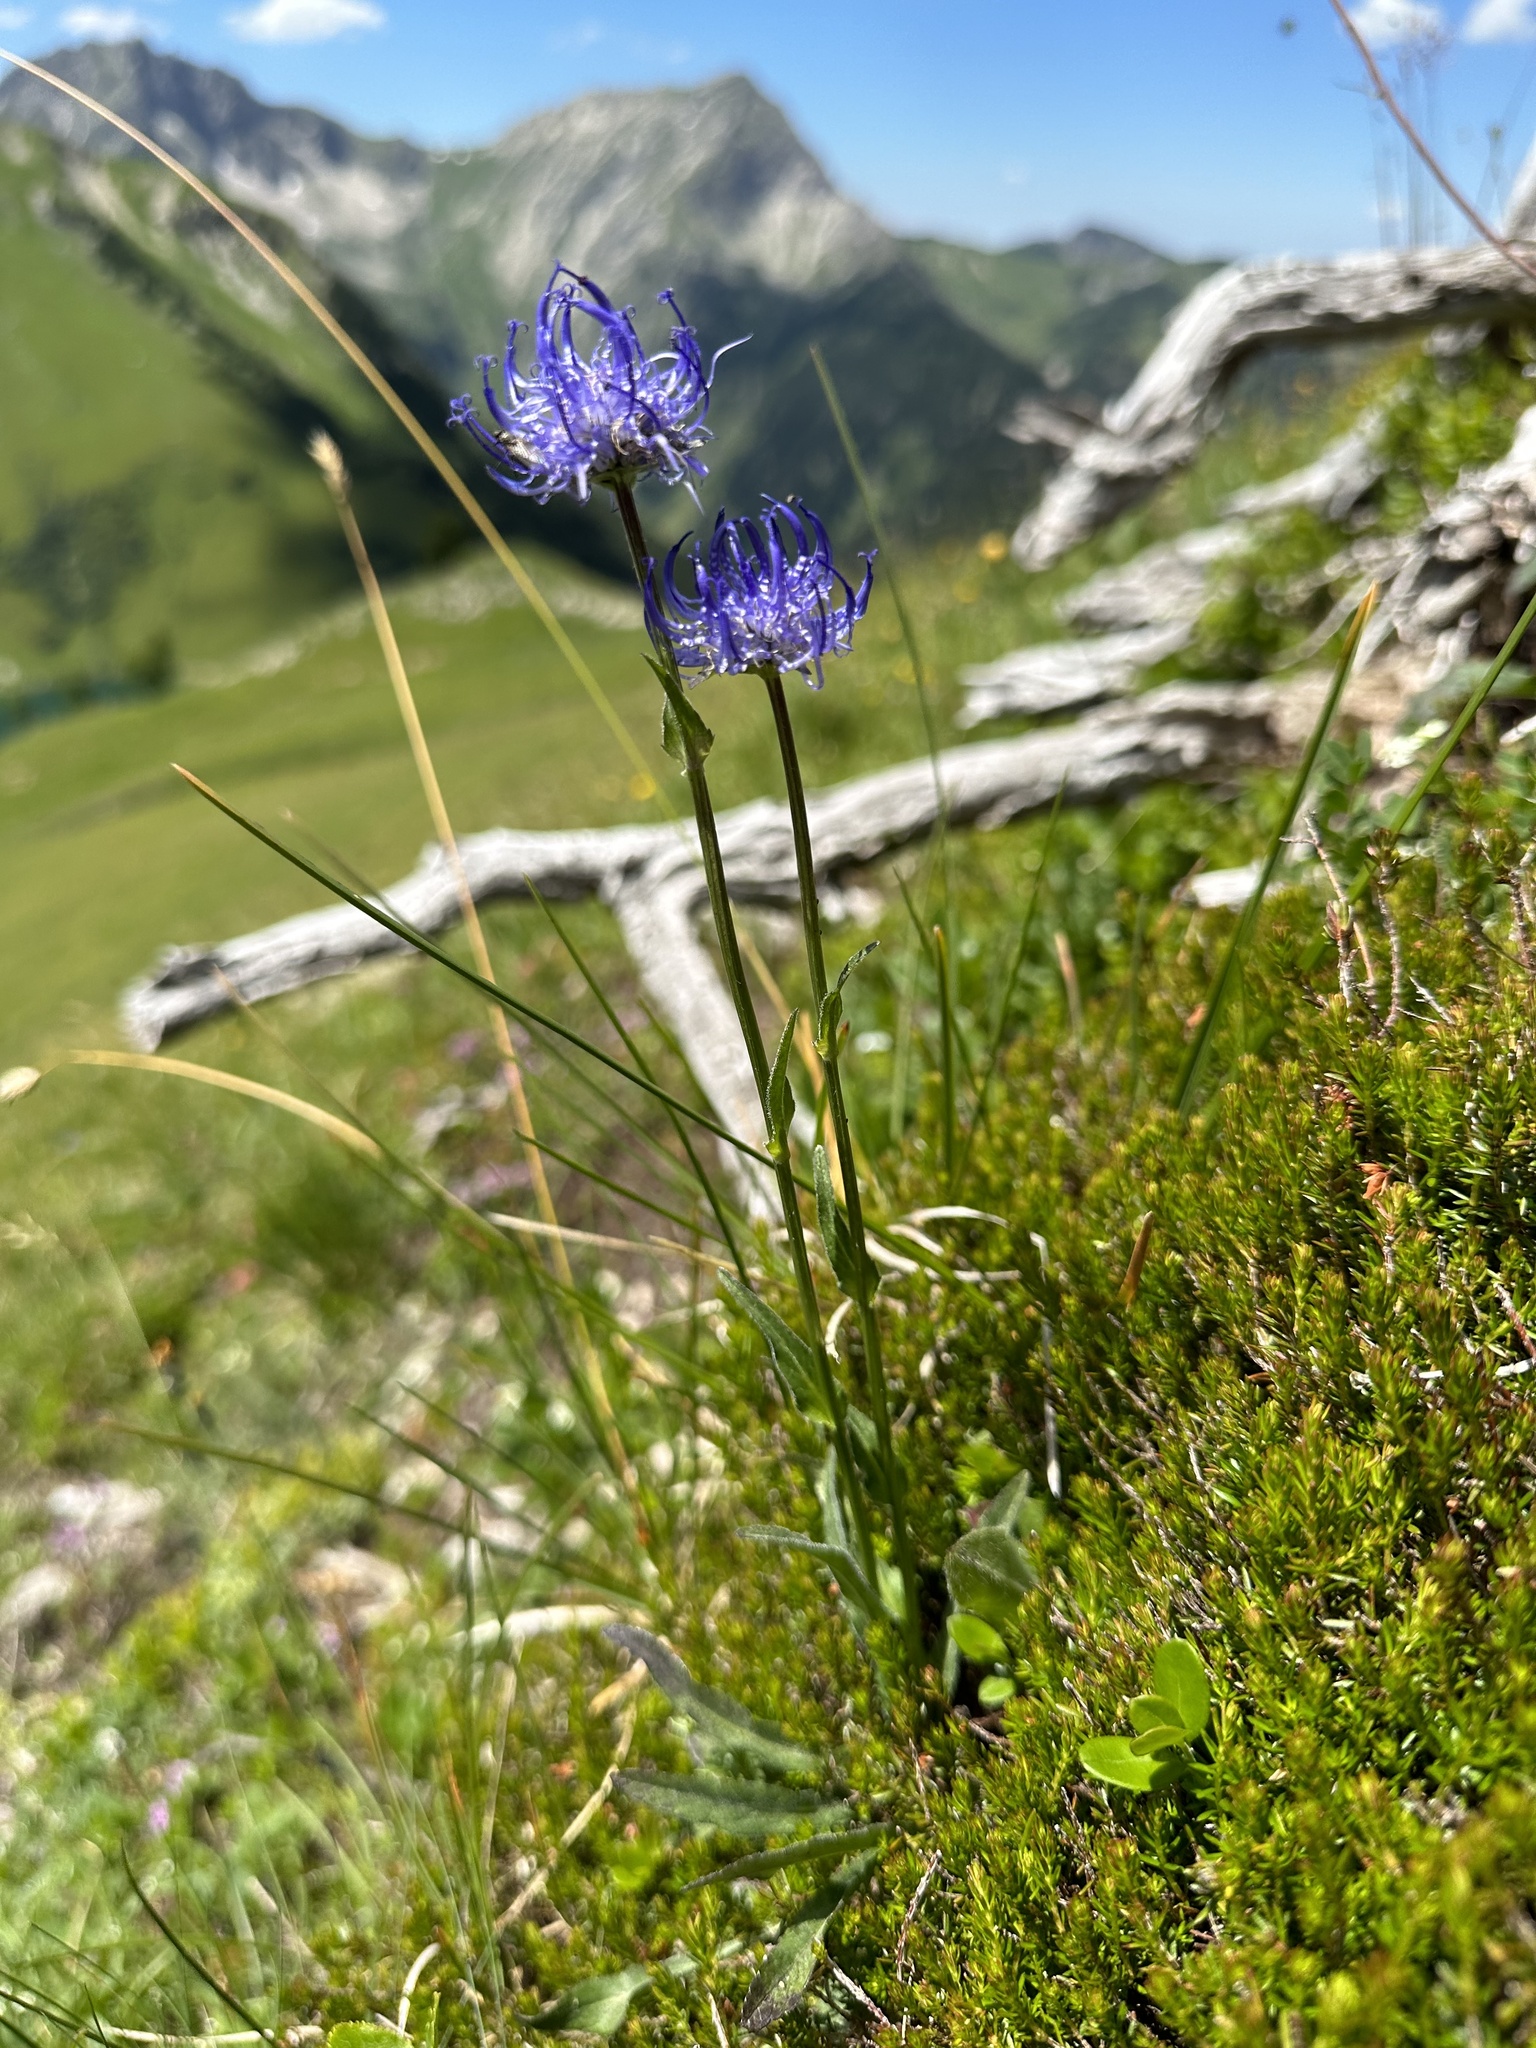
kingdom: Plantae
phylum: Tracheophyta
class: Magnoliopsida
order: Asterales
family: Campanulaceae
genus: Phyteuma
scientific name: Phyteuma orbiculare
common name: Round-headed rampion
